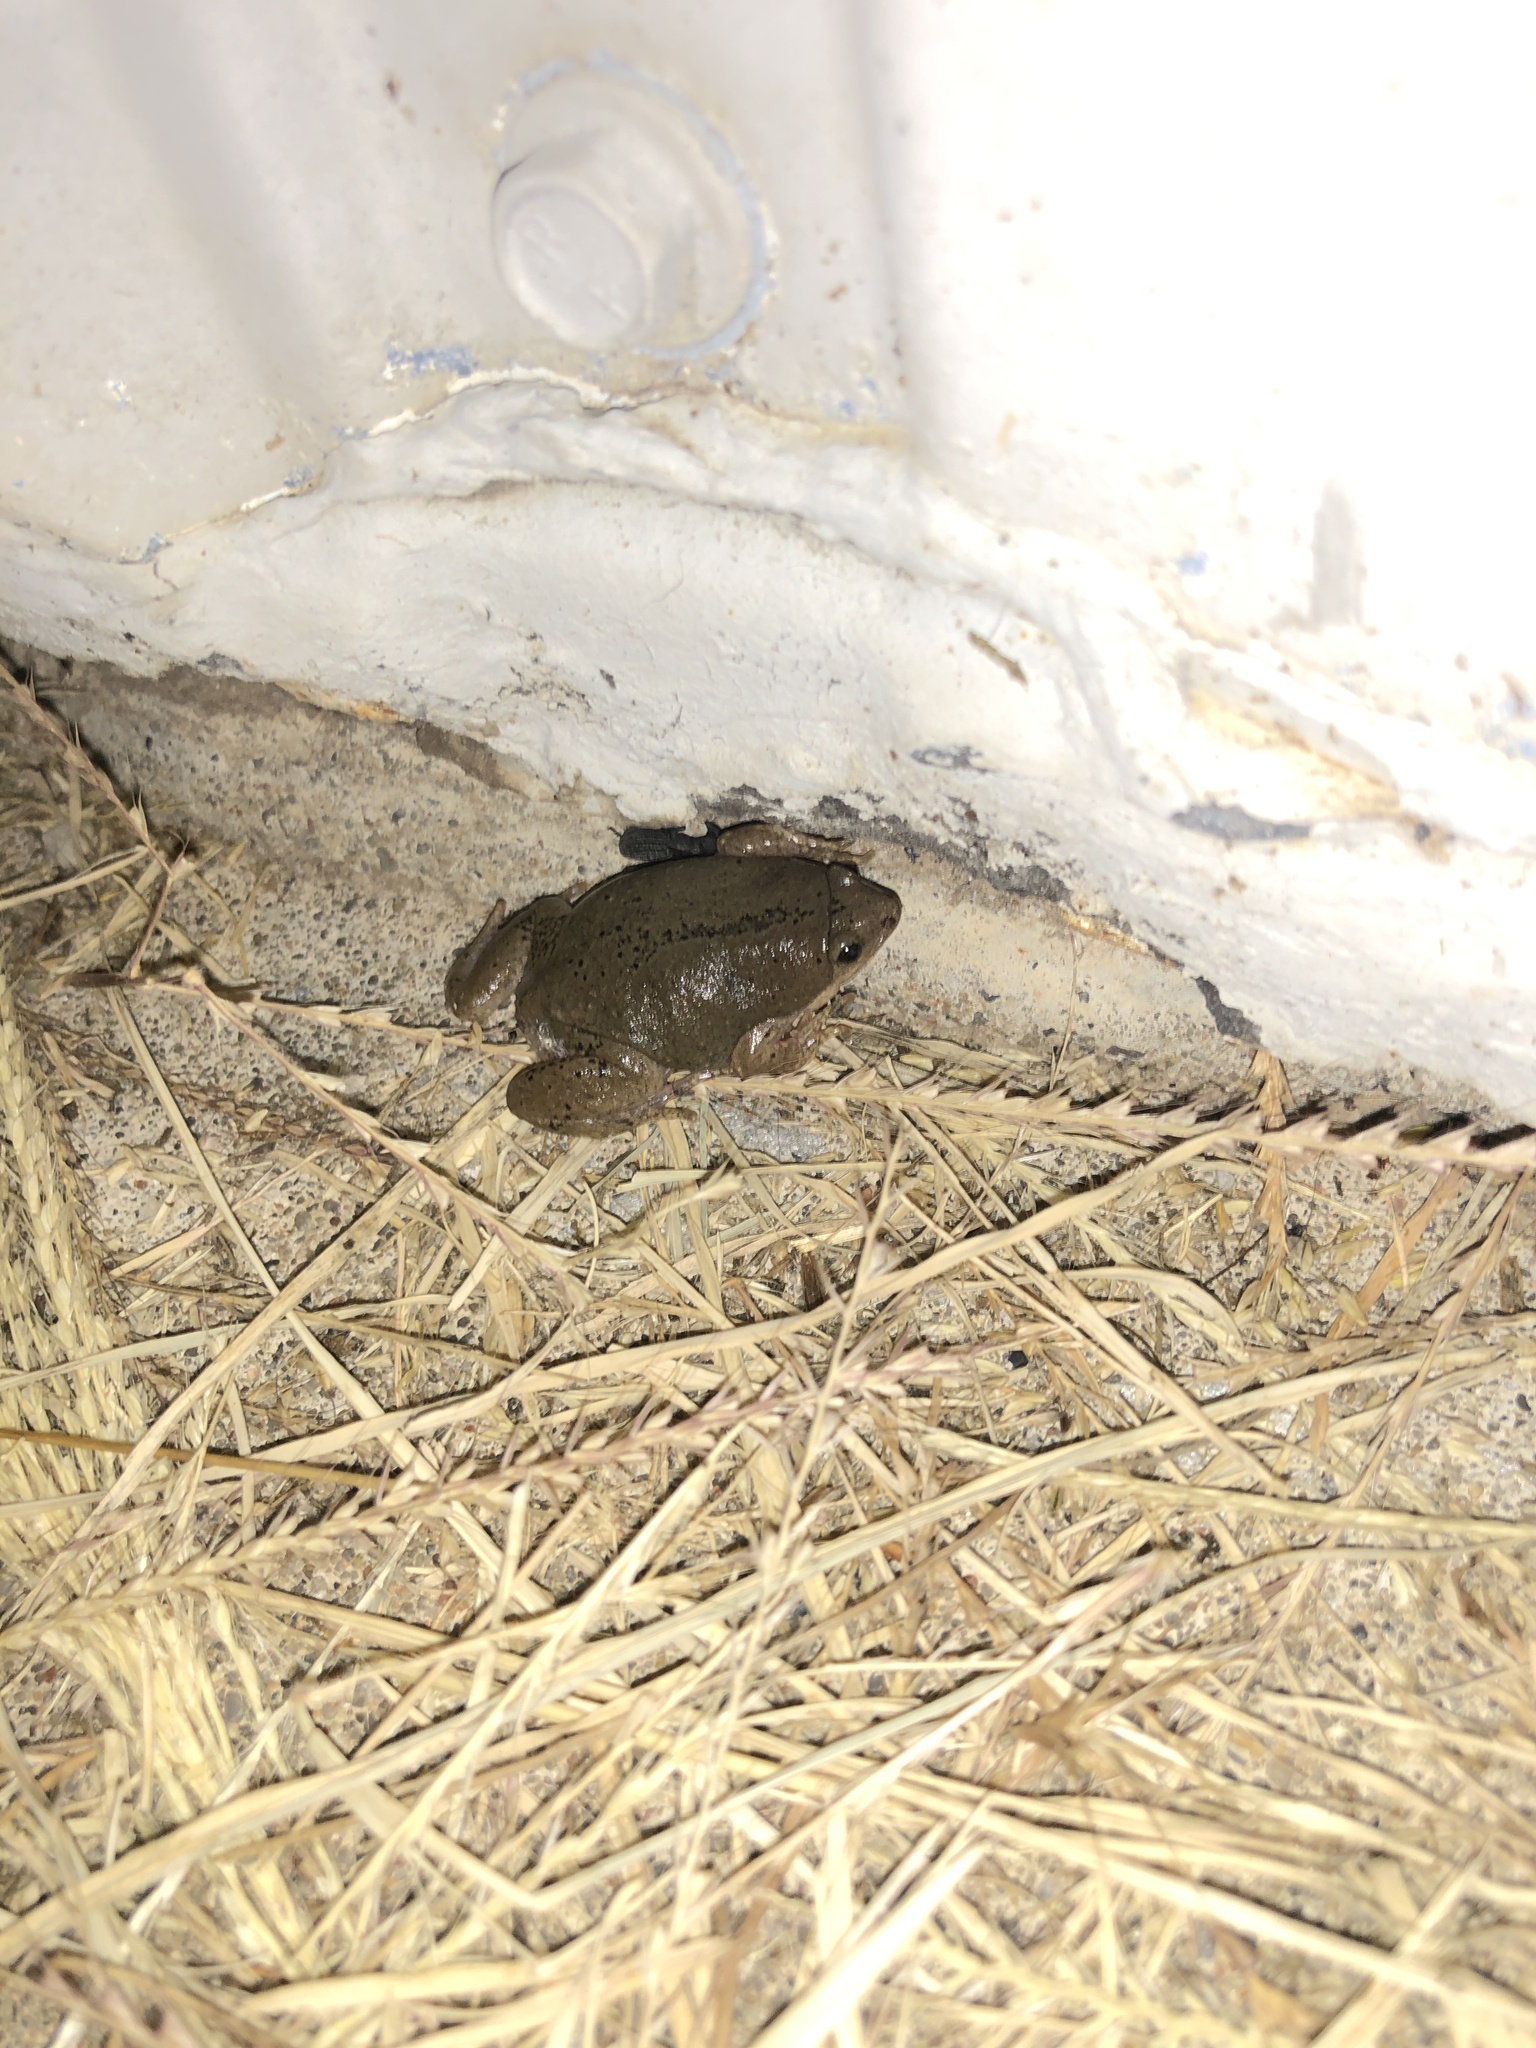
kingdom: Animalia
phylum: Chordata
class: Amphibia
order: Anura
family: Microhylidae
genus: Gastrophryne
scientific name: Gastrophryne olivacea
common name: Great plains narrow-mouthed toad
